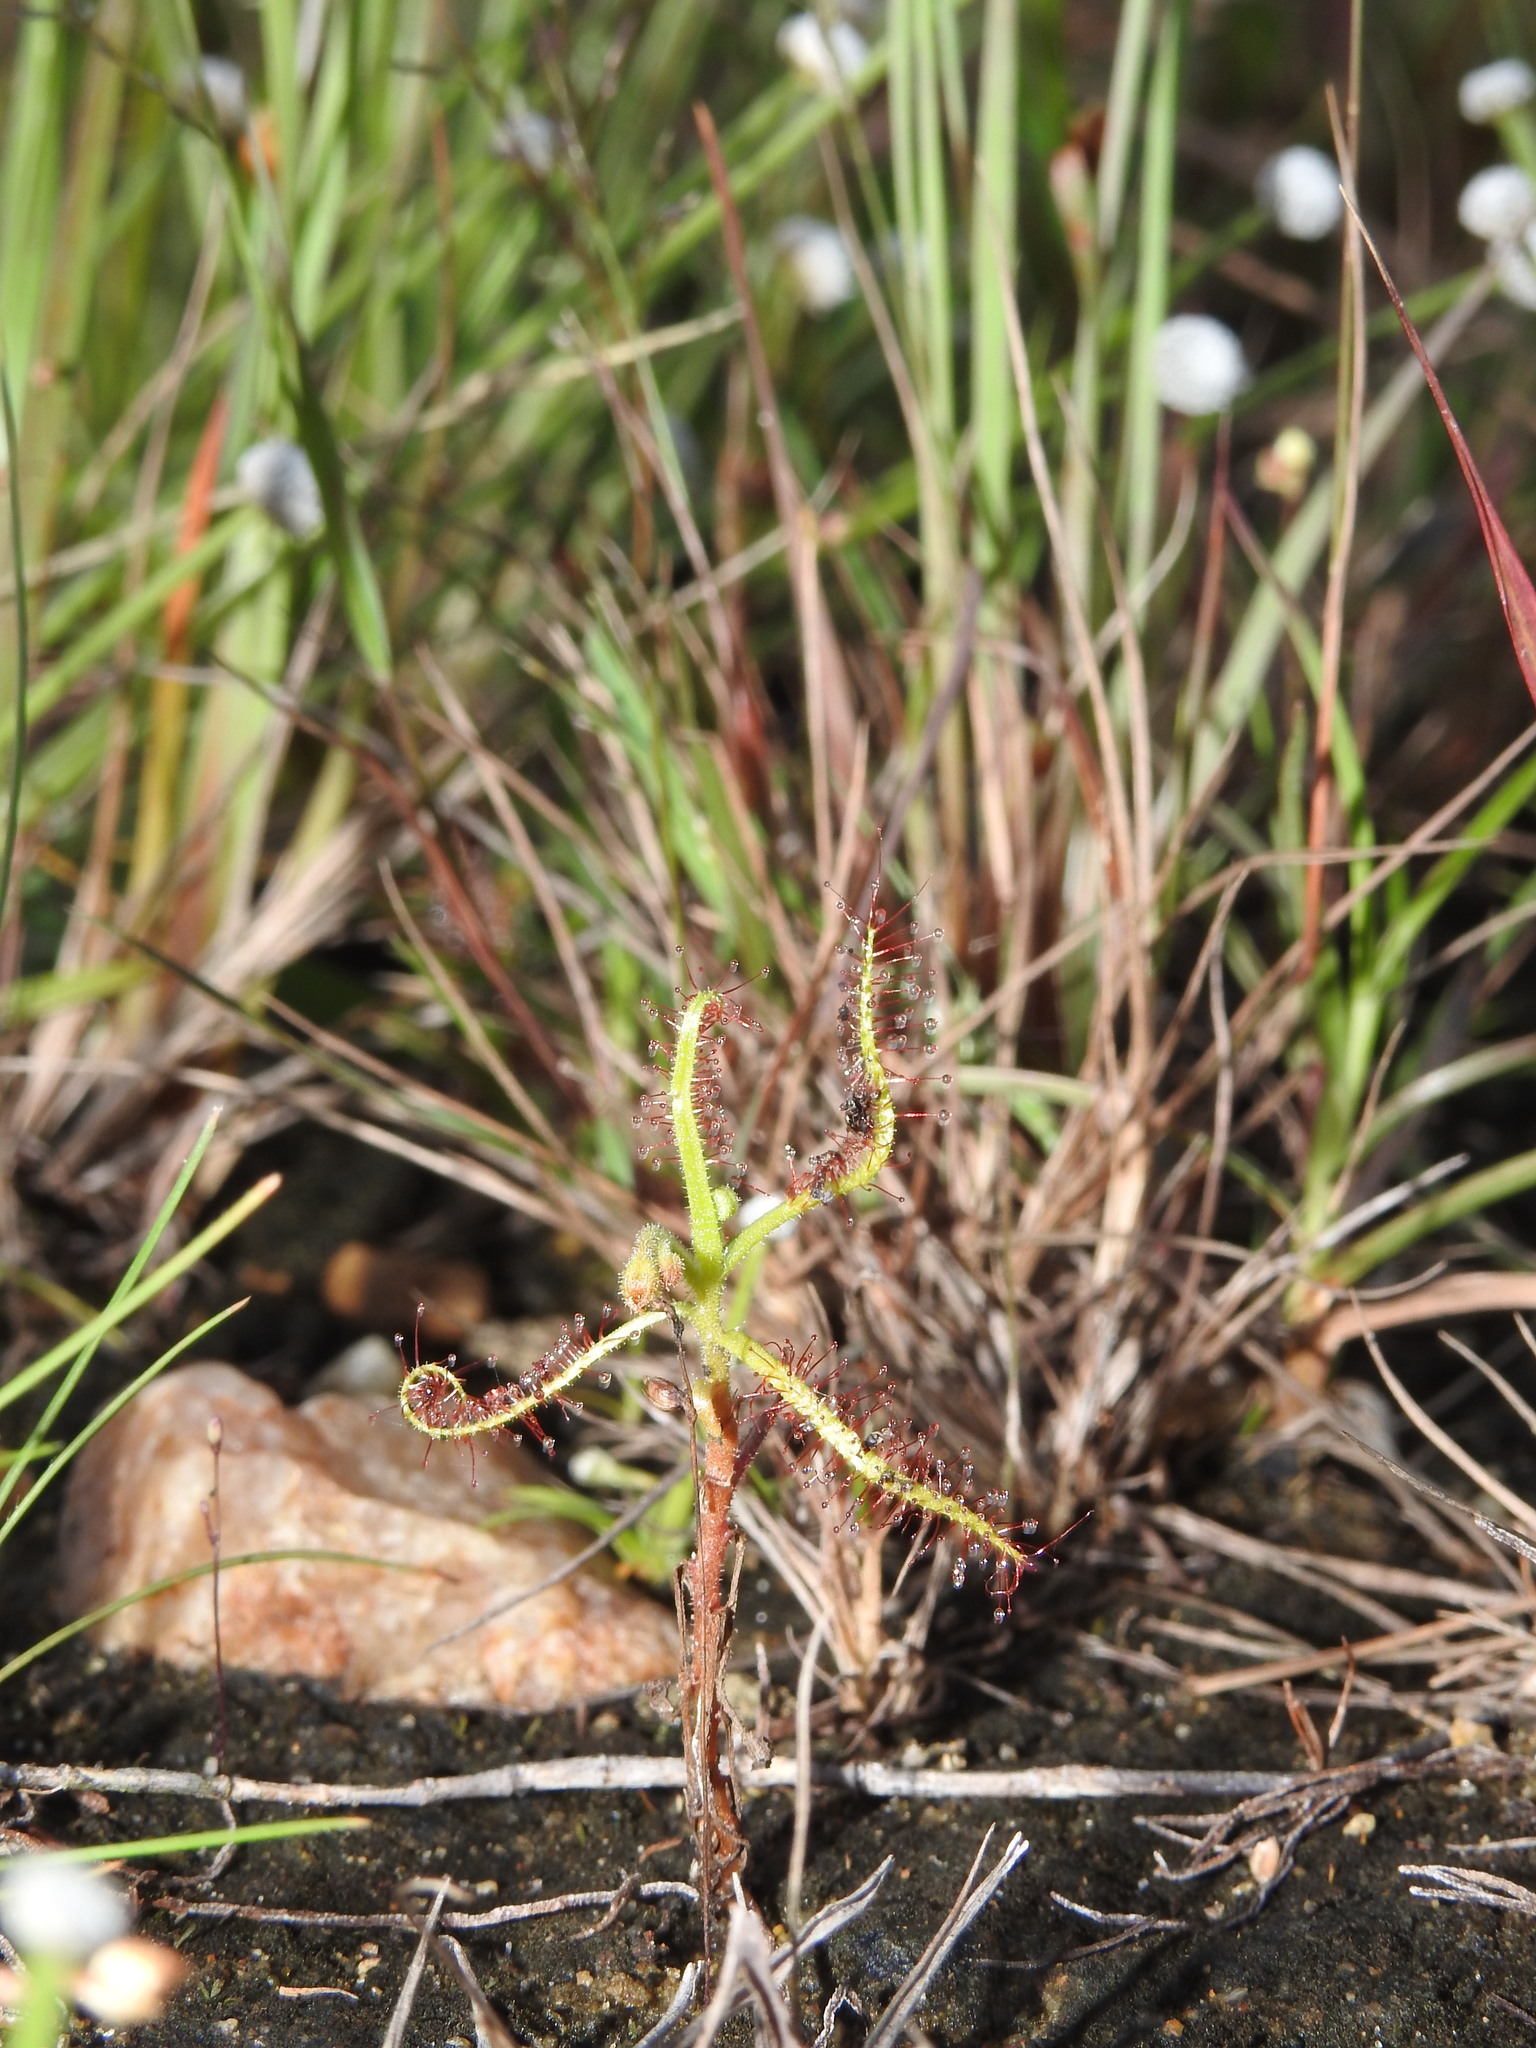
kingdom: Plantae
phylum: Tracheophyta
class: Magnoliopsida
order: Caryophyllales
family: Droseraceae
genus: Drosera
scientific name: Drosera indica
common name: Indian sundew
